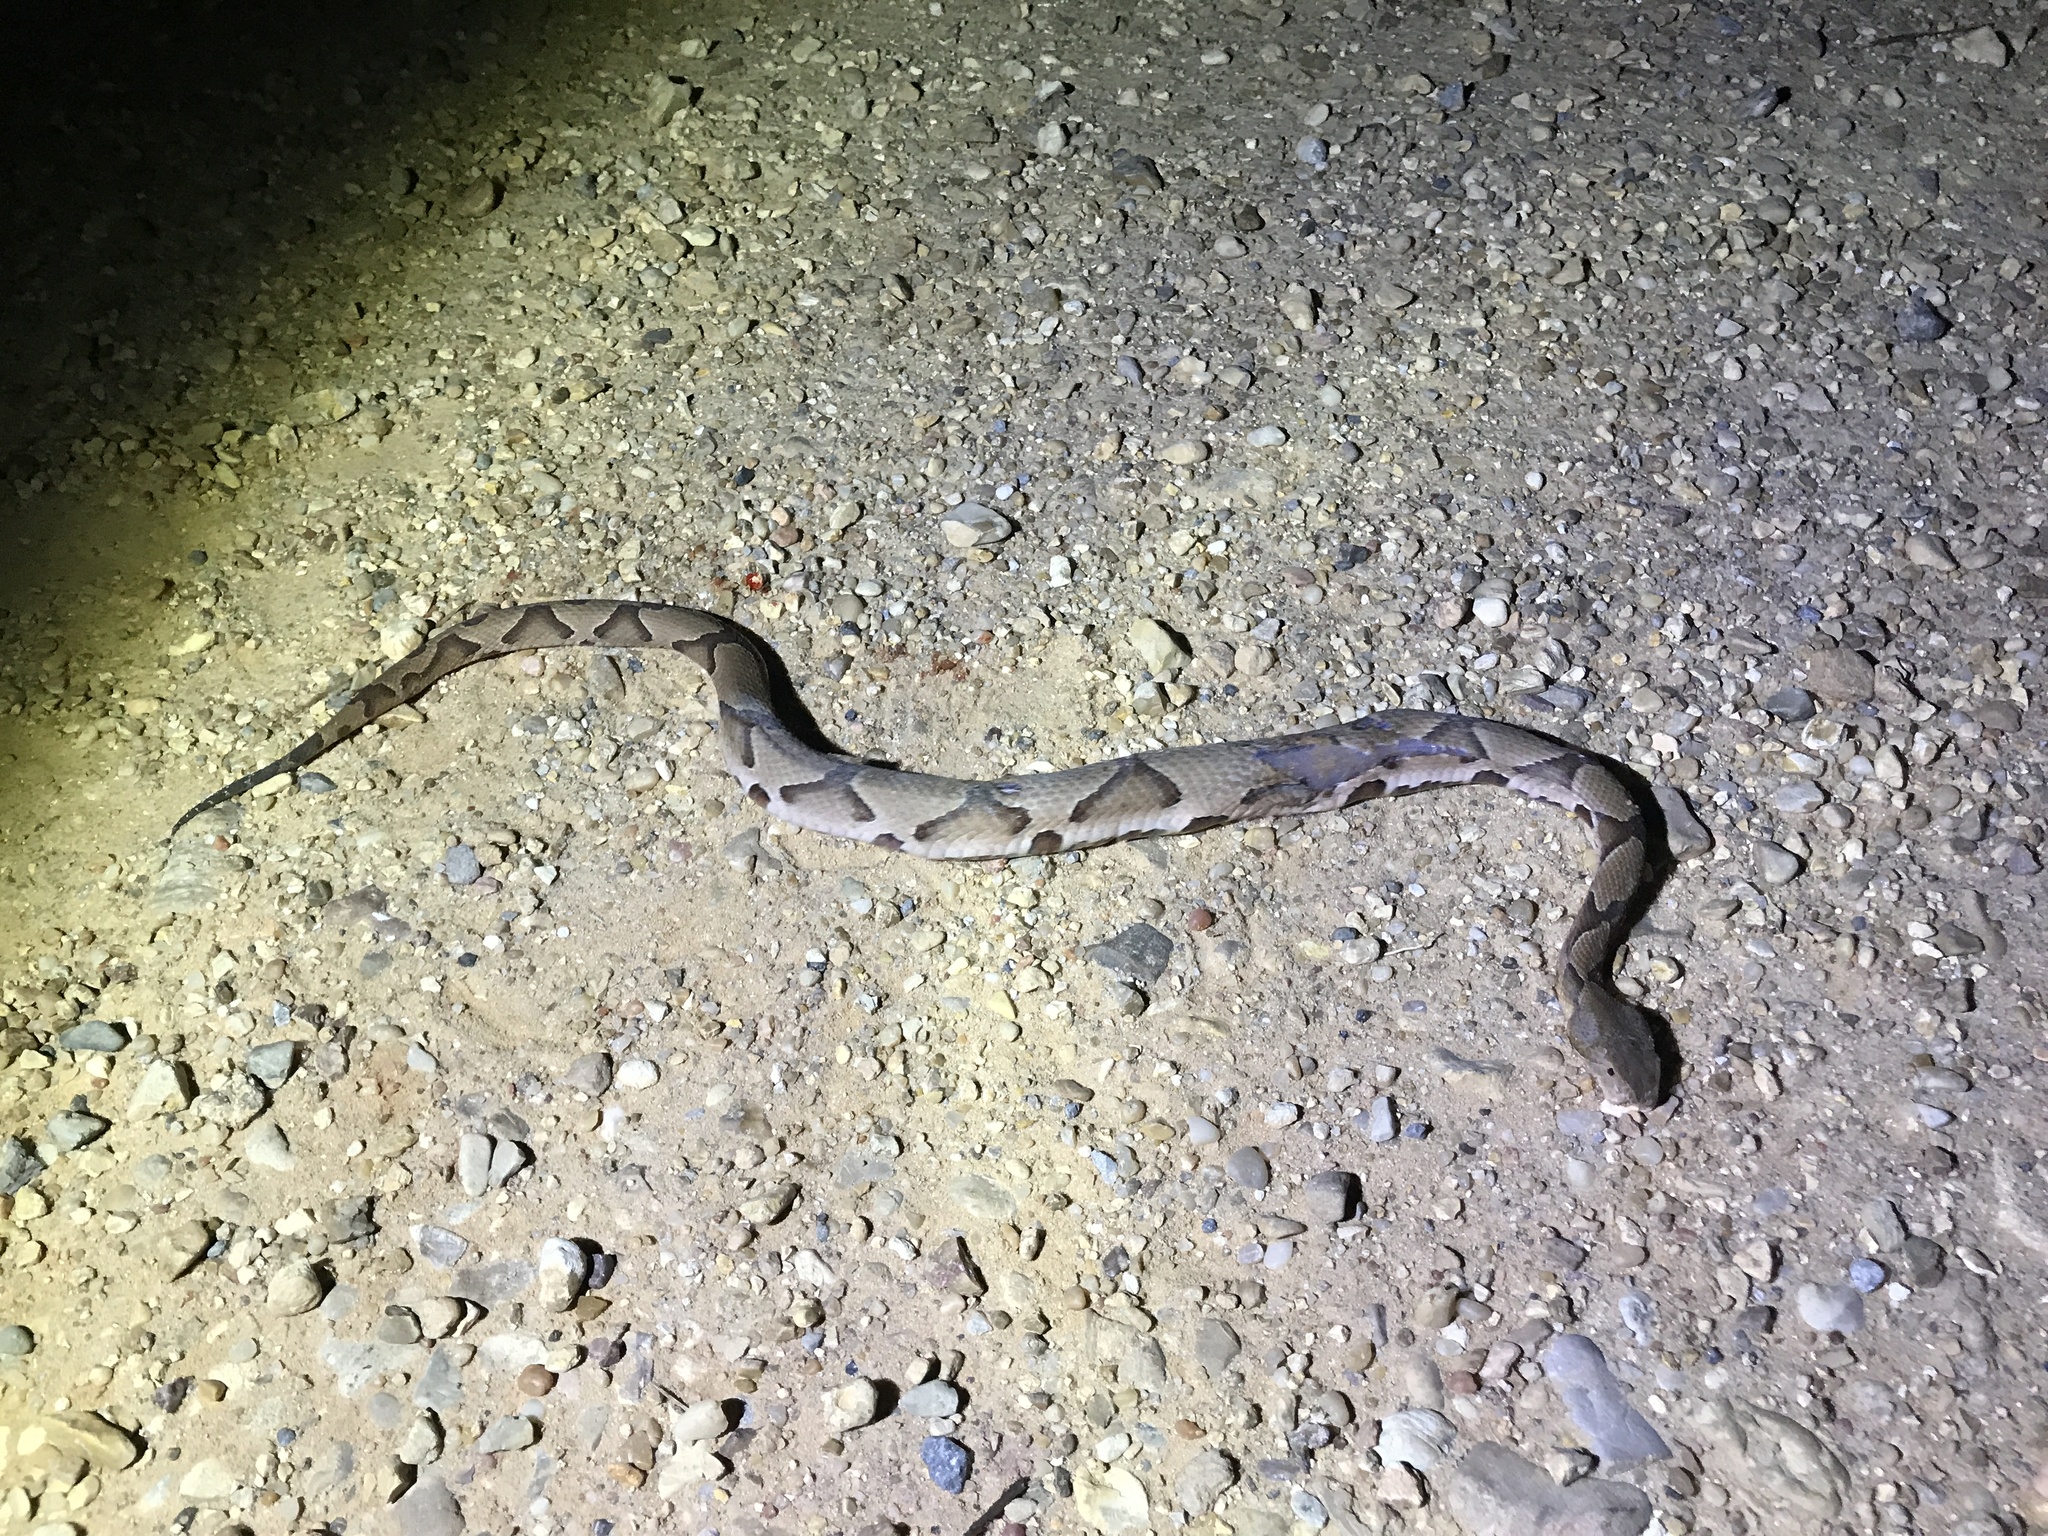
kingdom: Animalia
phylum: Chordata
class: Squamata
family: Viperidae
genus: Agkistrodon
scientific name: Agkistrodon contortrix
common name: Northern copperhead
